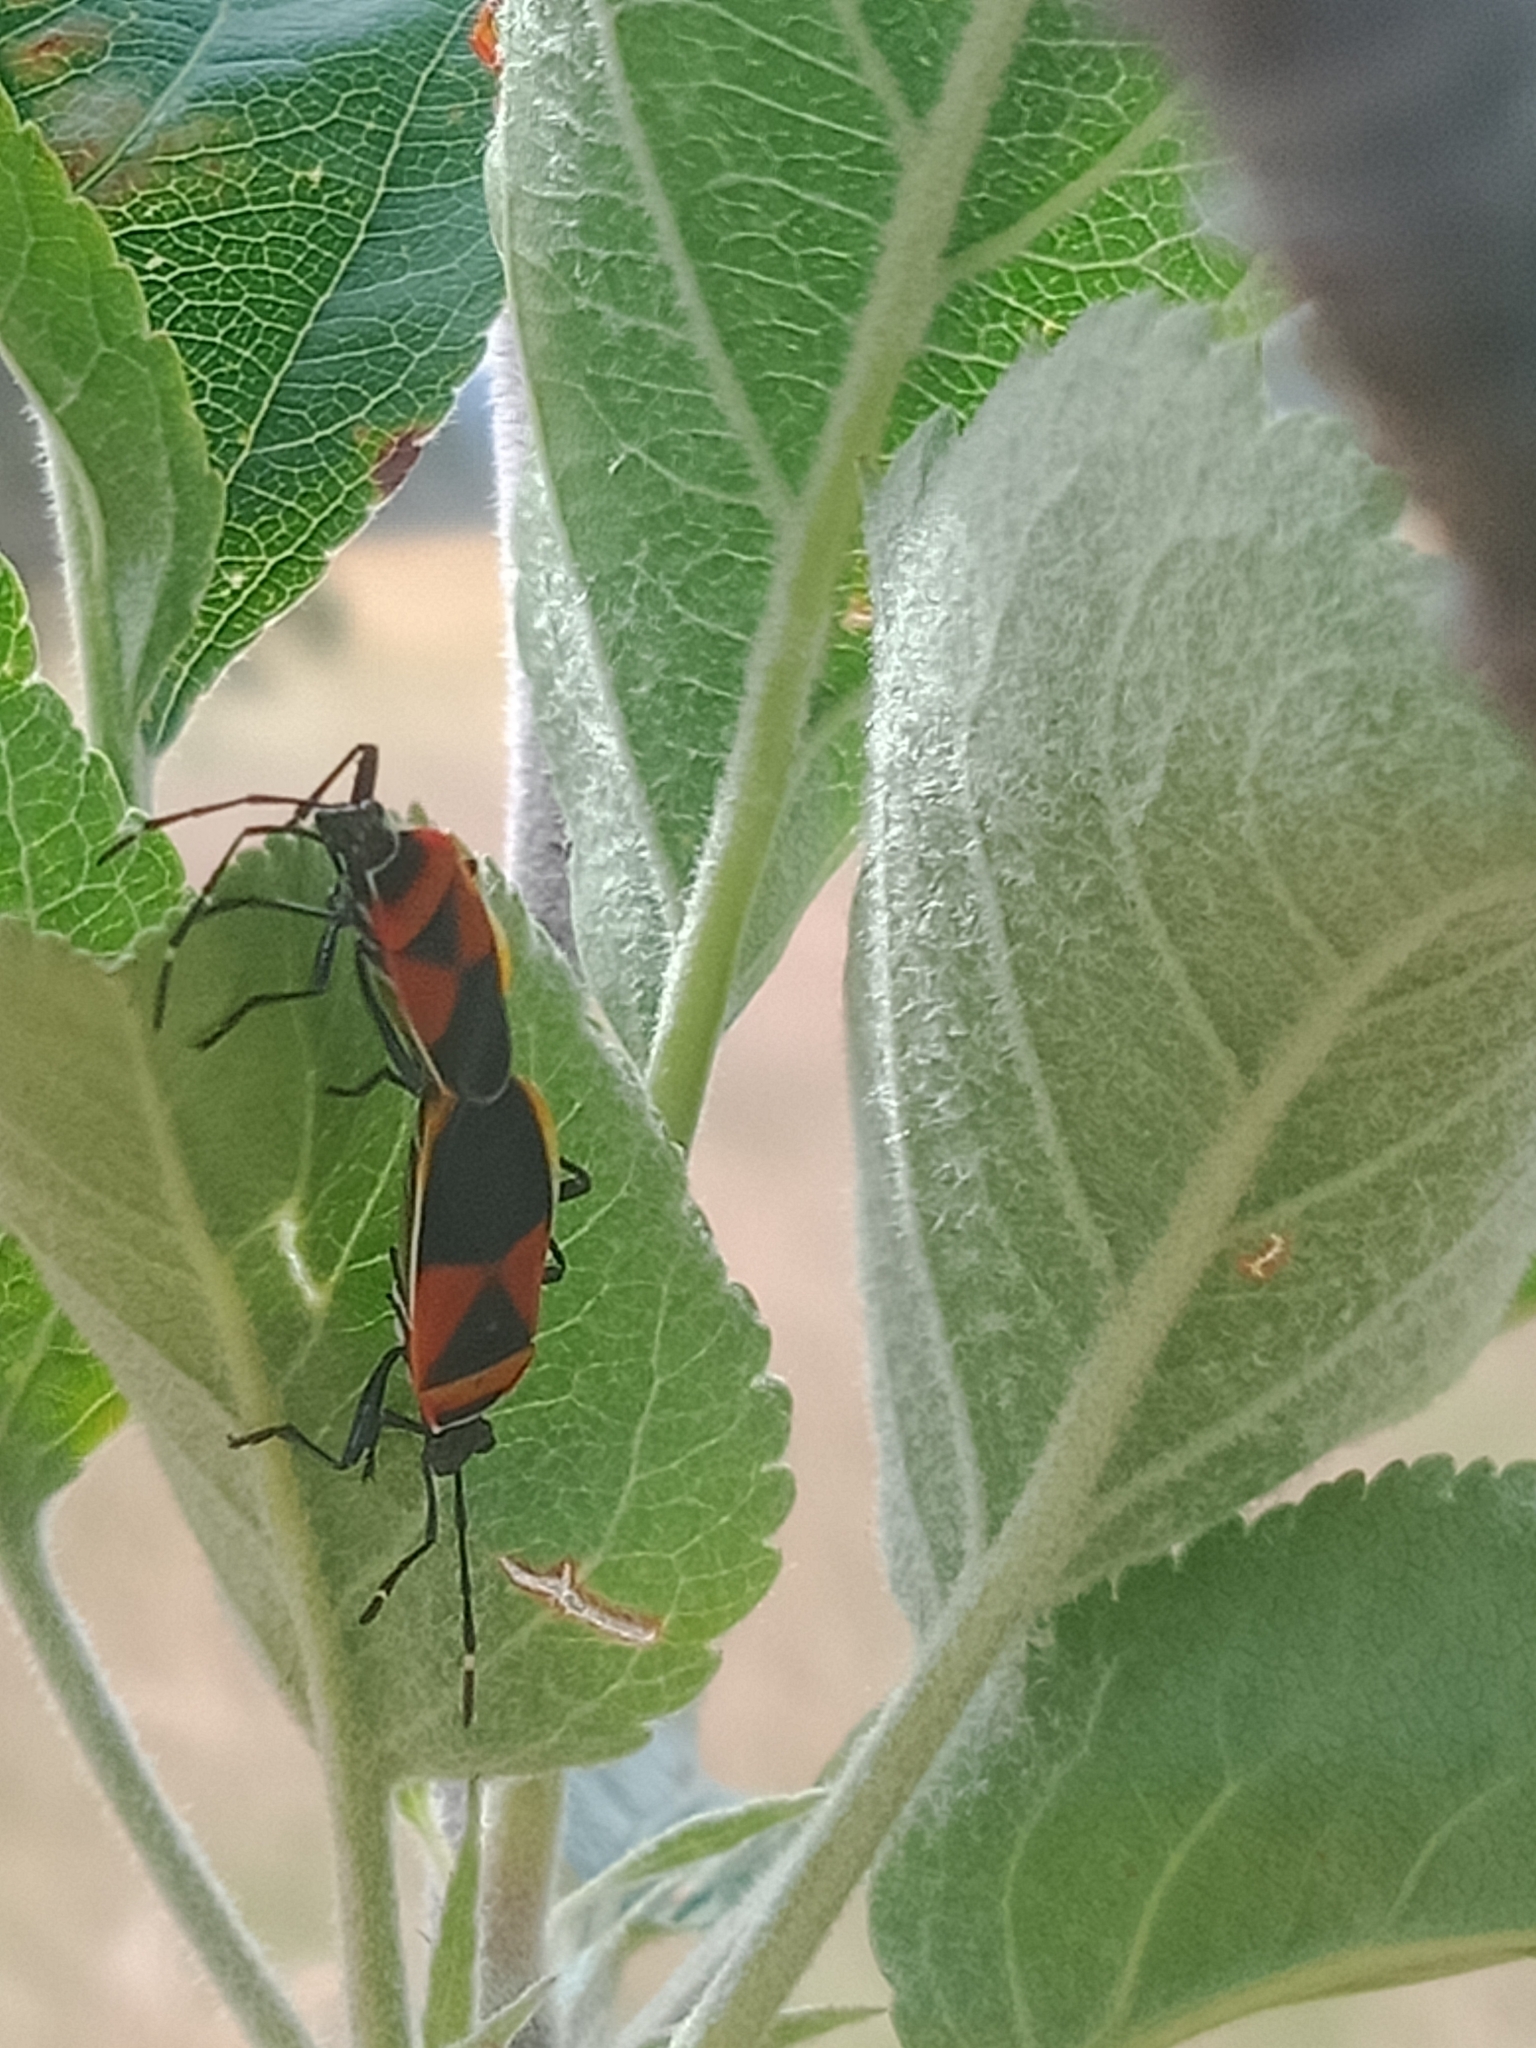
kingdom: Animalia
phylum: Arthropoda
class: Insecta
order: Hemiptera
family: Pyrrhocoridae
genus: Dindymus
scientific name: Dindymus
